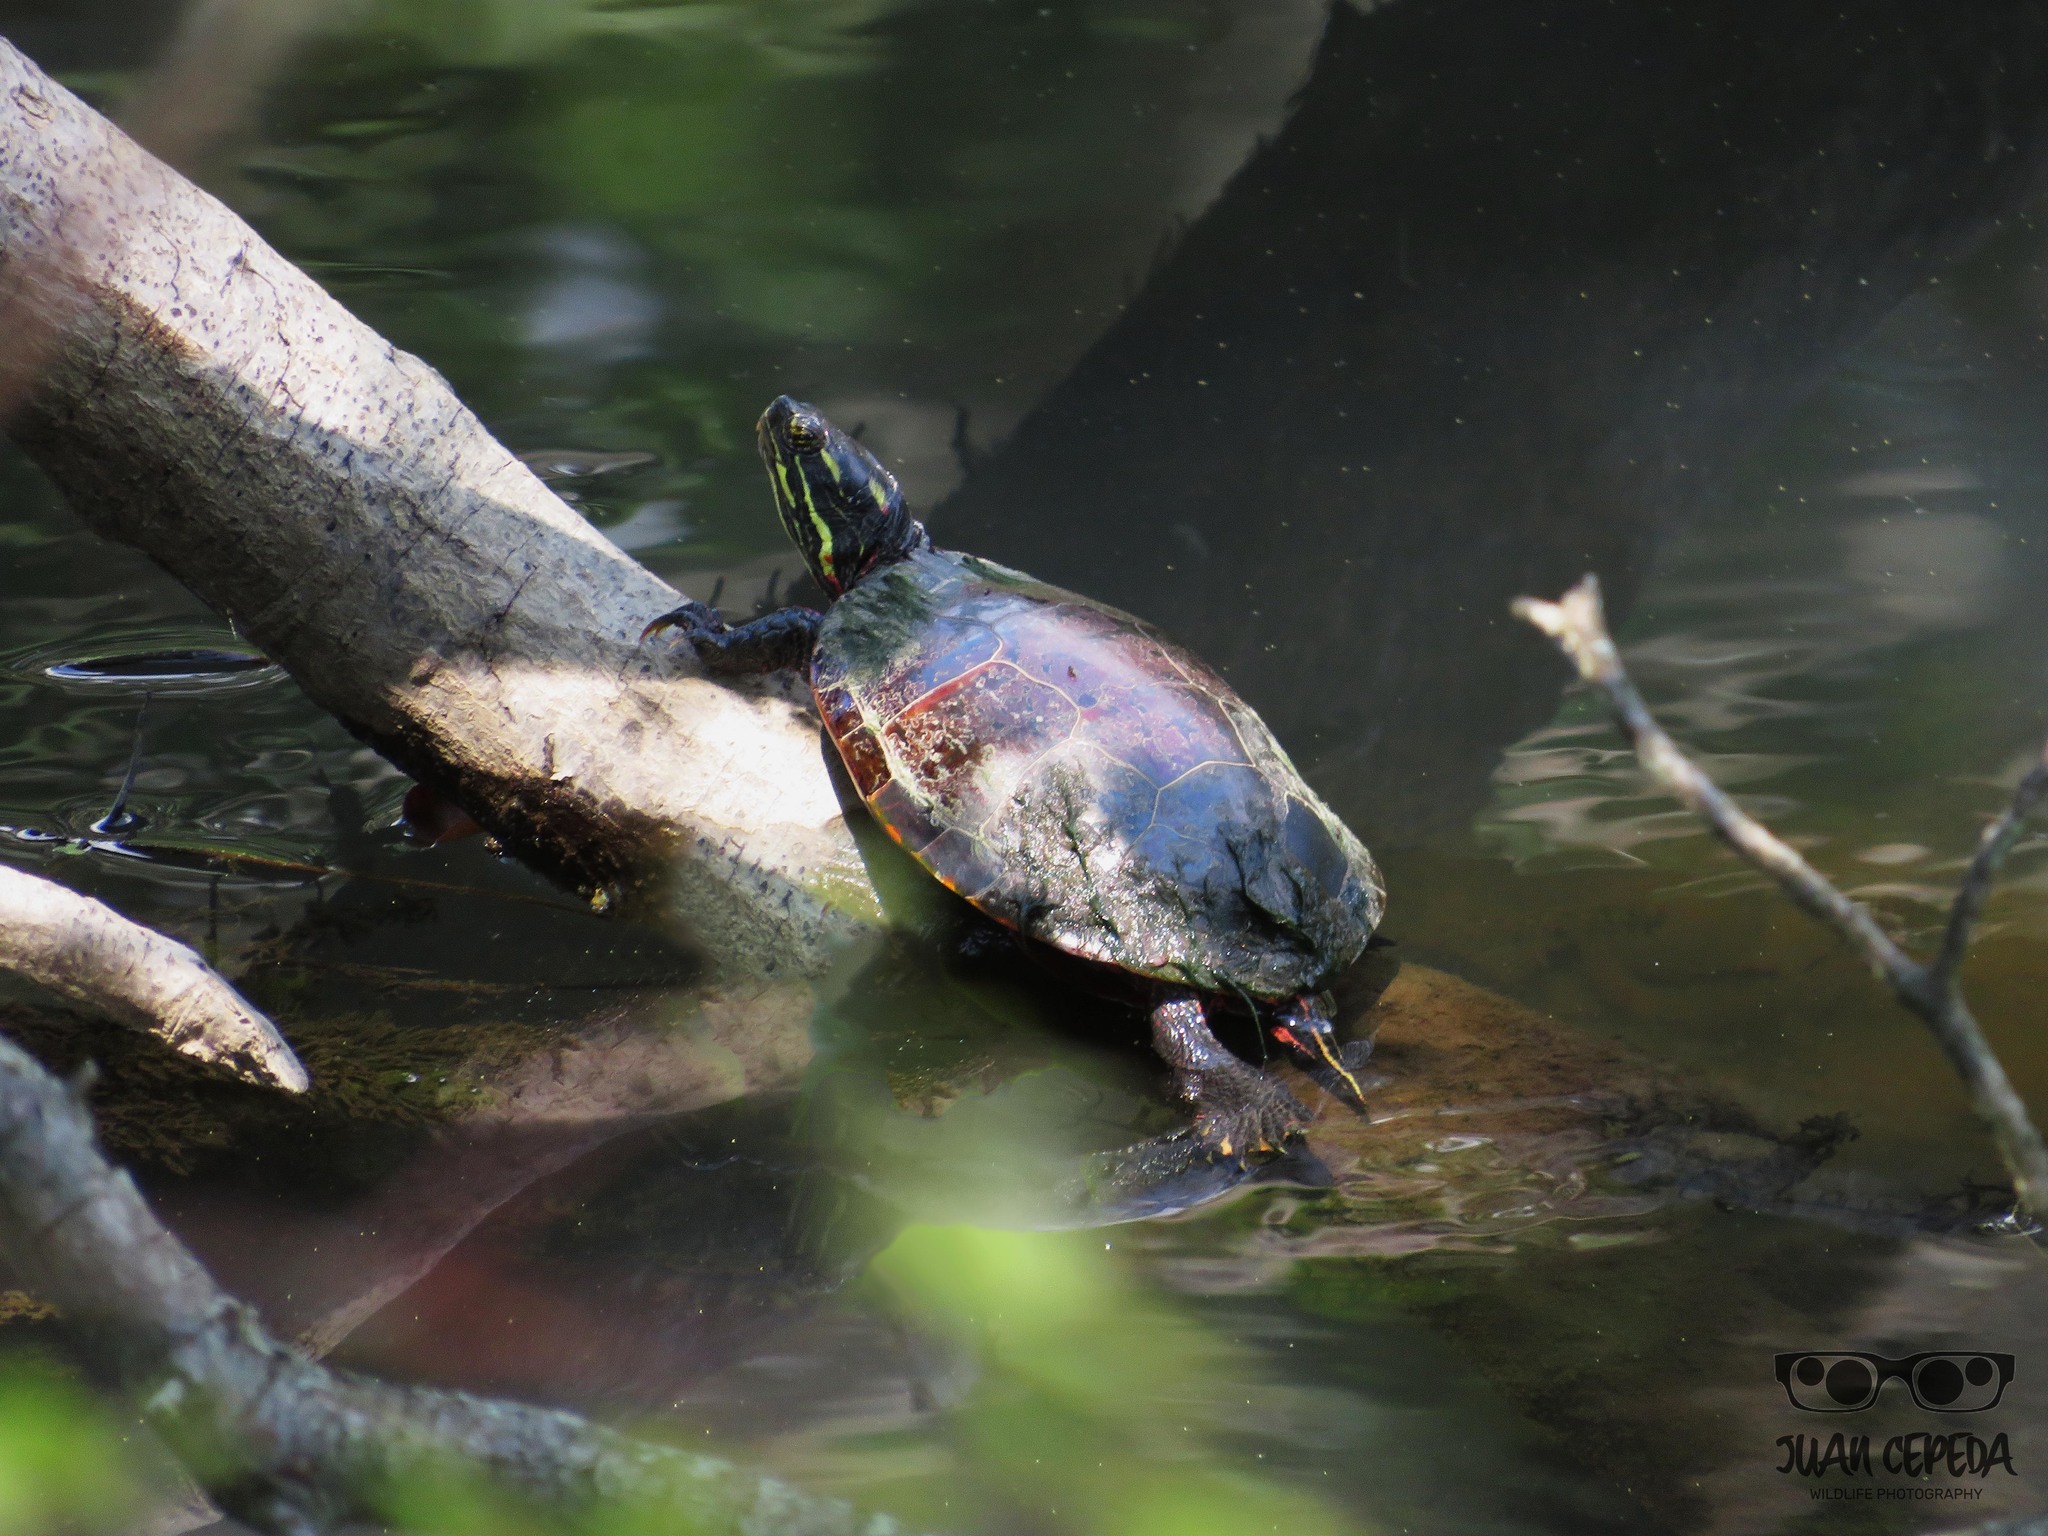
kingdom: Animalia
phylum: Chordata
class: Testudines
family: Emydidae
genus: Chrysemys
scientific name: Chrysemys picta
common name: Painted turtle
